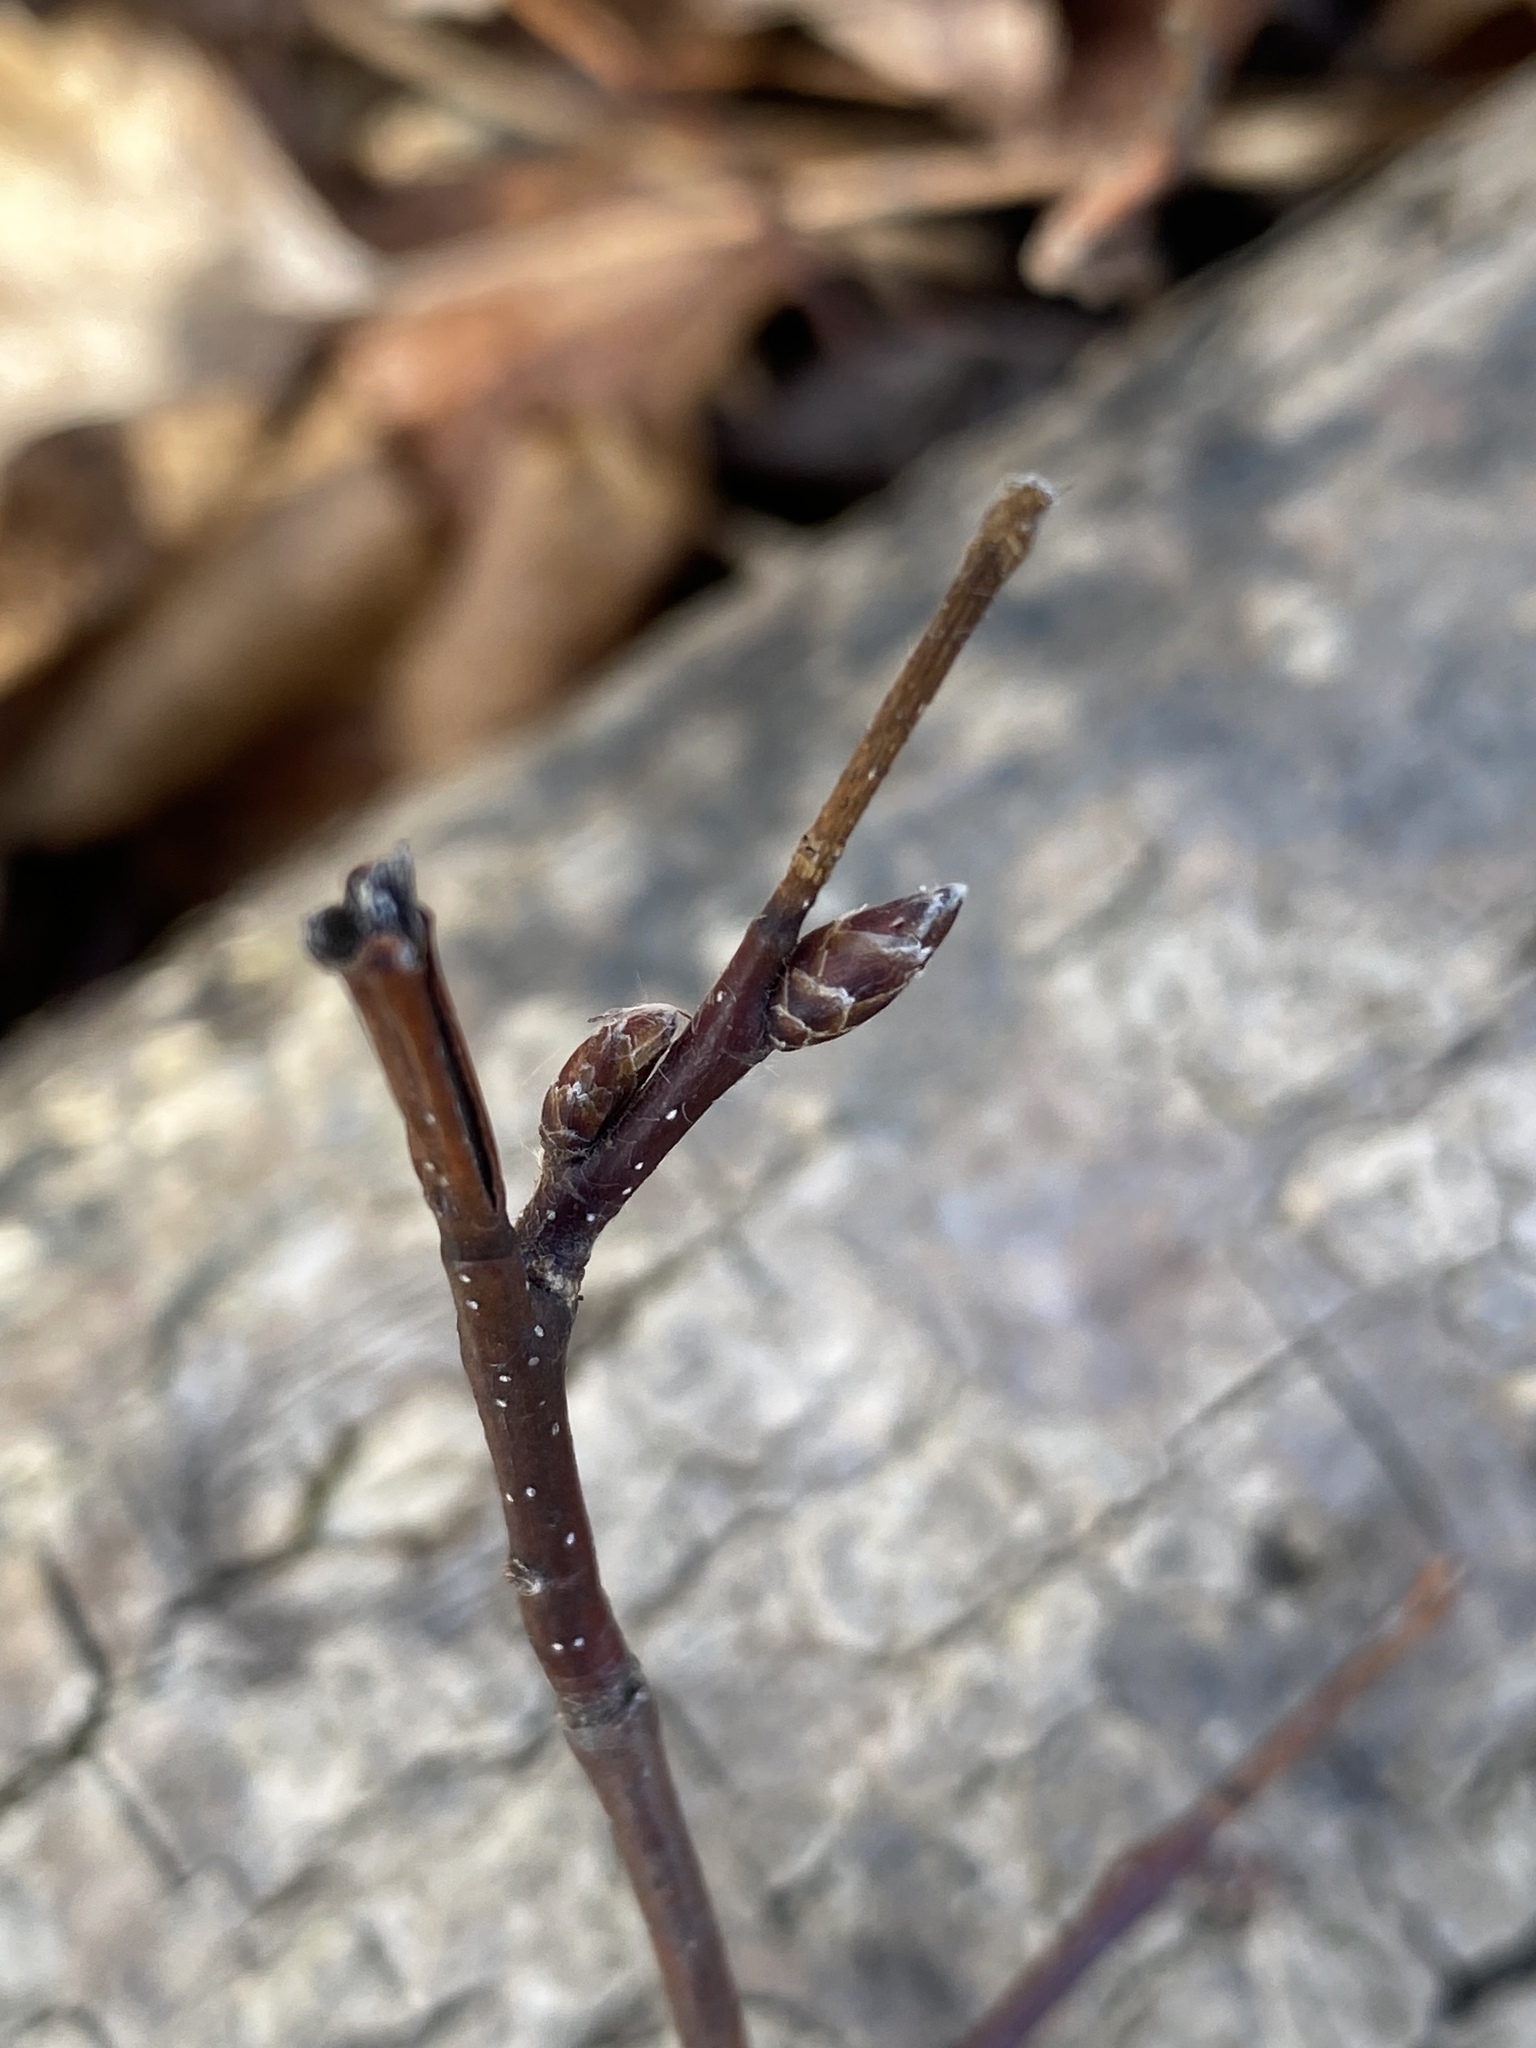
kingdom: Plantae
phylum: Tracheophyta
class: Magnoliopsida
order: Fagales
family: Betulaceae
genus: Carpinus
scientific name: Carpinus caroliniana
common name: American hornbeam
